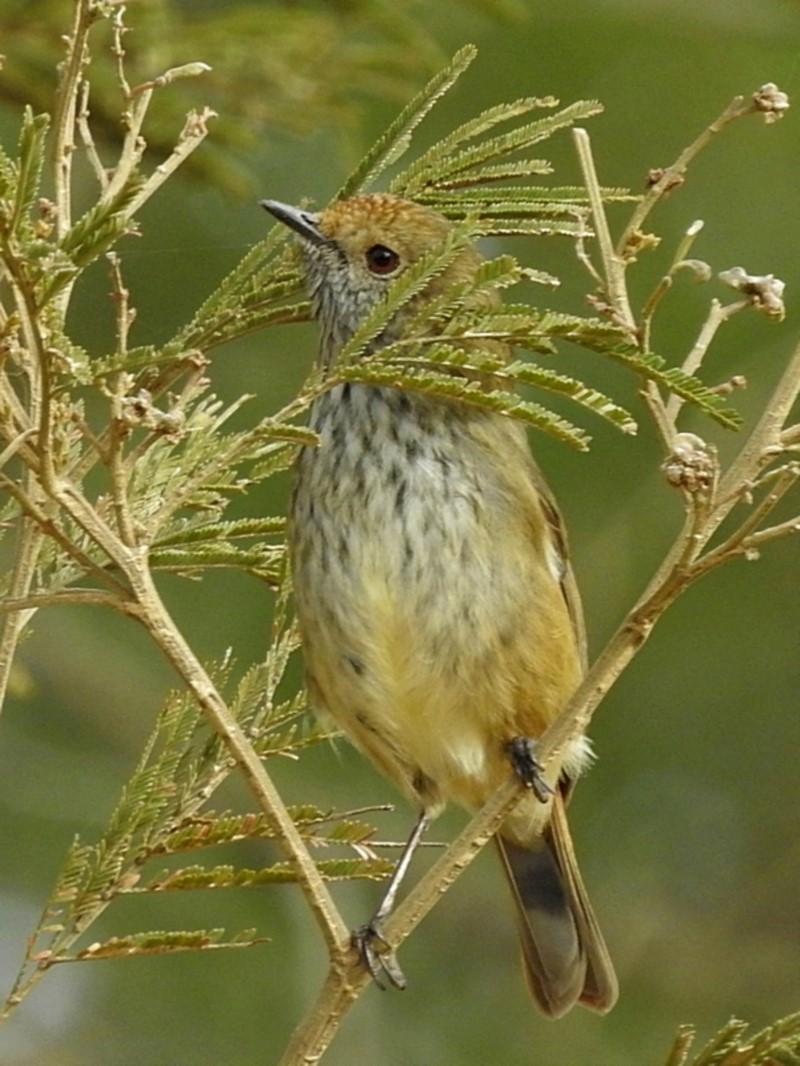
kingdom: Animalia
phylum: Chordata
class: Aves
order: Passeriformes
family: Acanthizidae
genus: Acanthiza
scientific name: Acanthiza pusilla
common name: Brown thornbill
